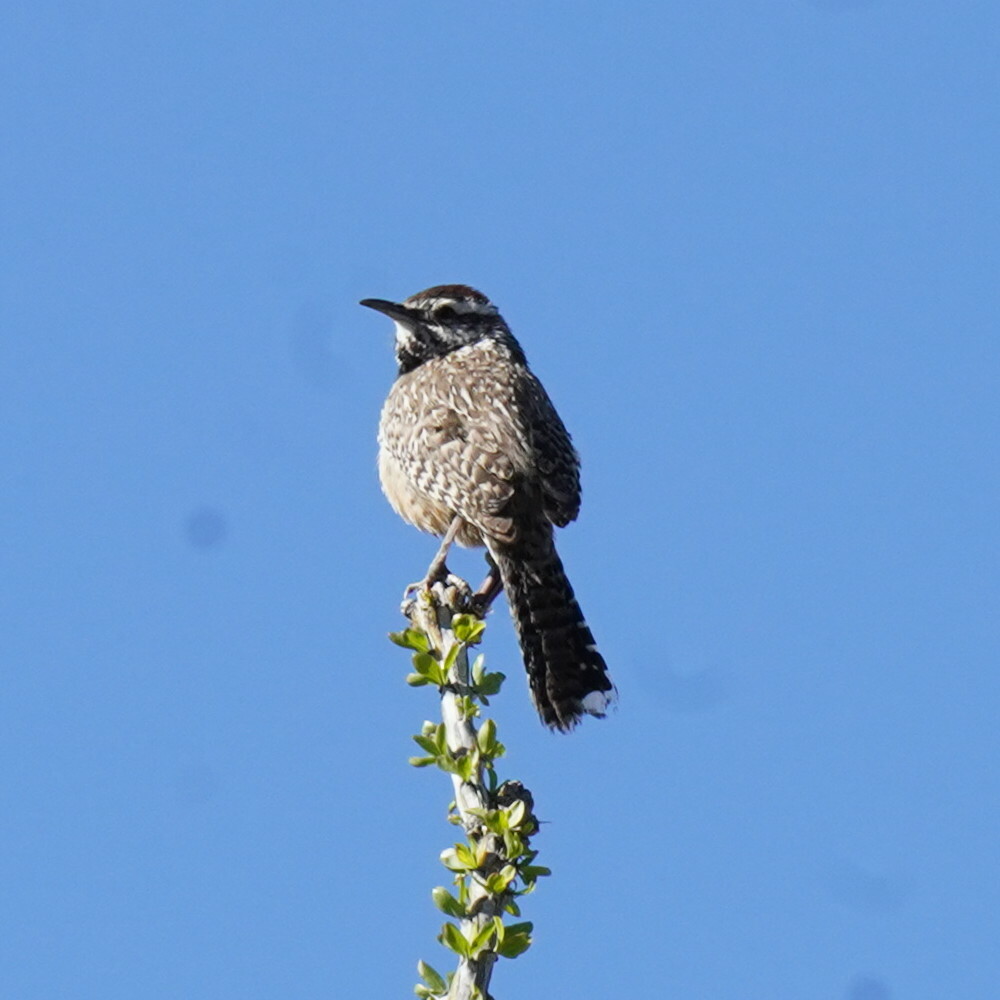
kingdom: Animalia
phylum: Chordata
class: Aves
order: Passeriformes
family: Troglodytidae
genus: Campylorhynchus
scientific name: Campylorhynchus brunneicapillus
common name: Cactus wren
